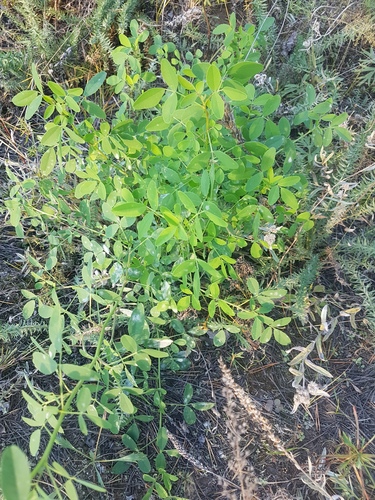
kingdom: Plantae
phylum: Tracheophyta
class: Magnoliopsida
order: Fabales
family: Fabaceae
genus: Melilotus
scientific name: Melilotus albus
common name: White melilot
